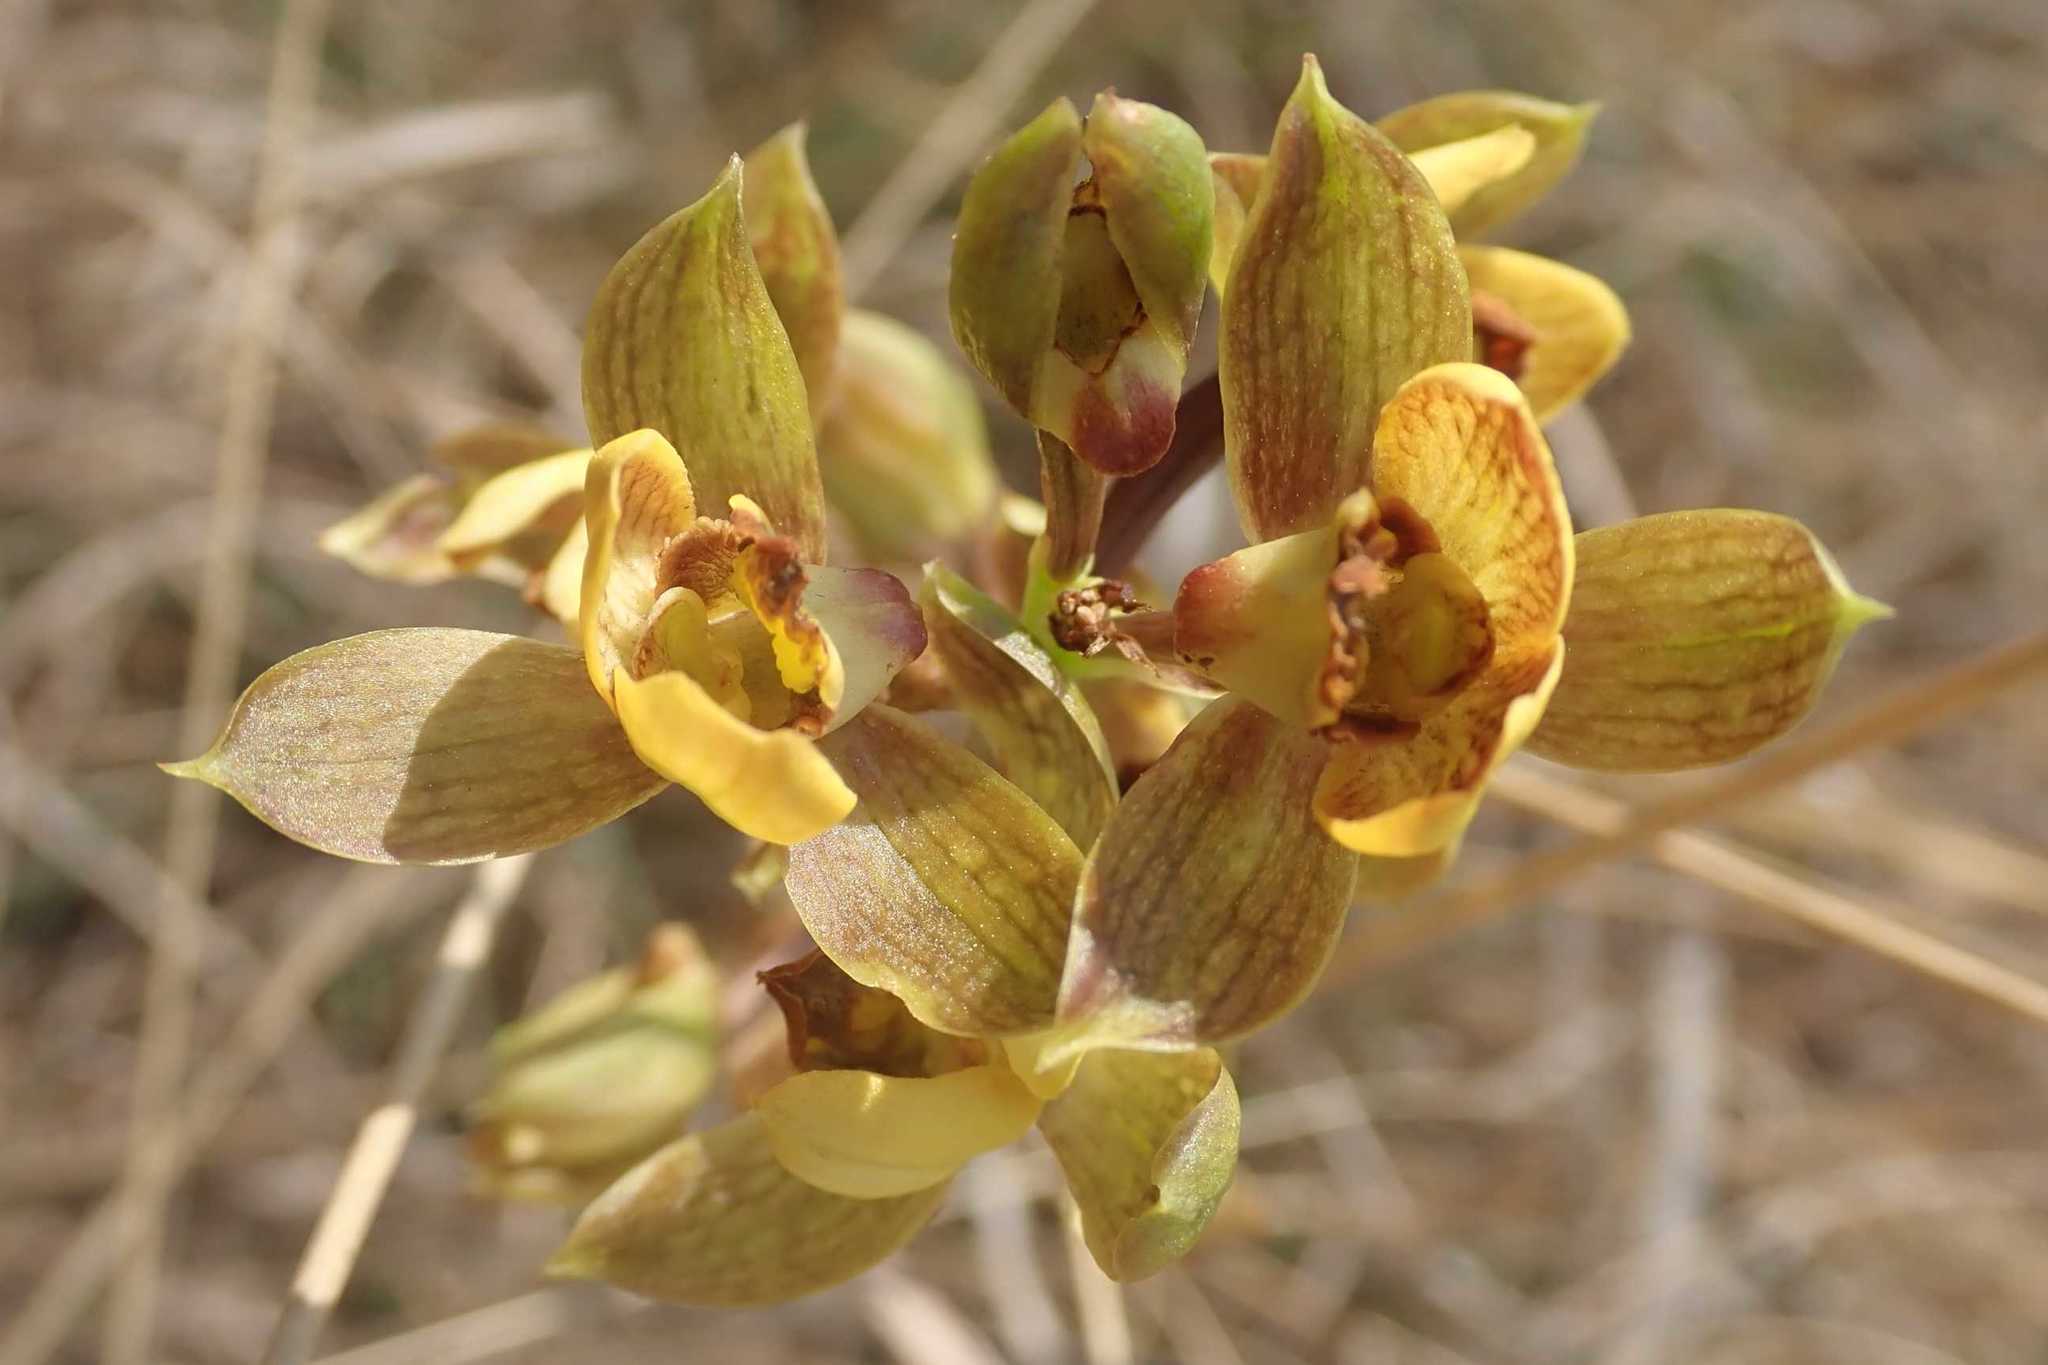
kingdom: Plantae
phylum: Tracheophyta
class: Liliopsida
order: Asparagales
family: Orchidaceae
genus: Eulophia
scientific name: Eulophia parviflora
